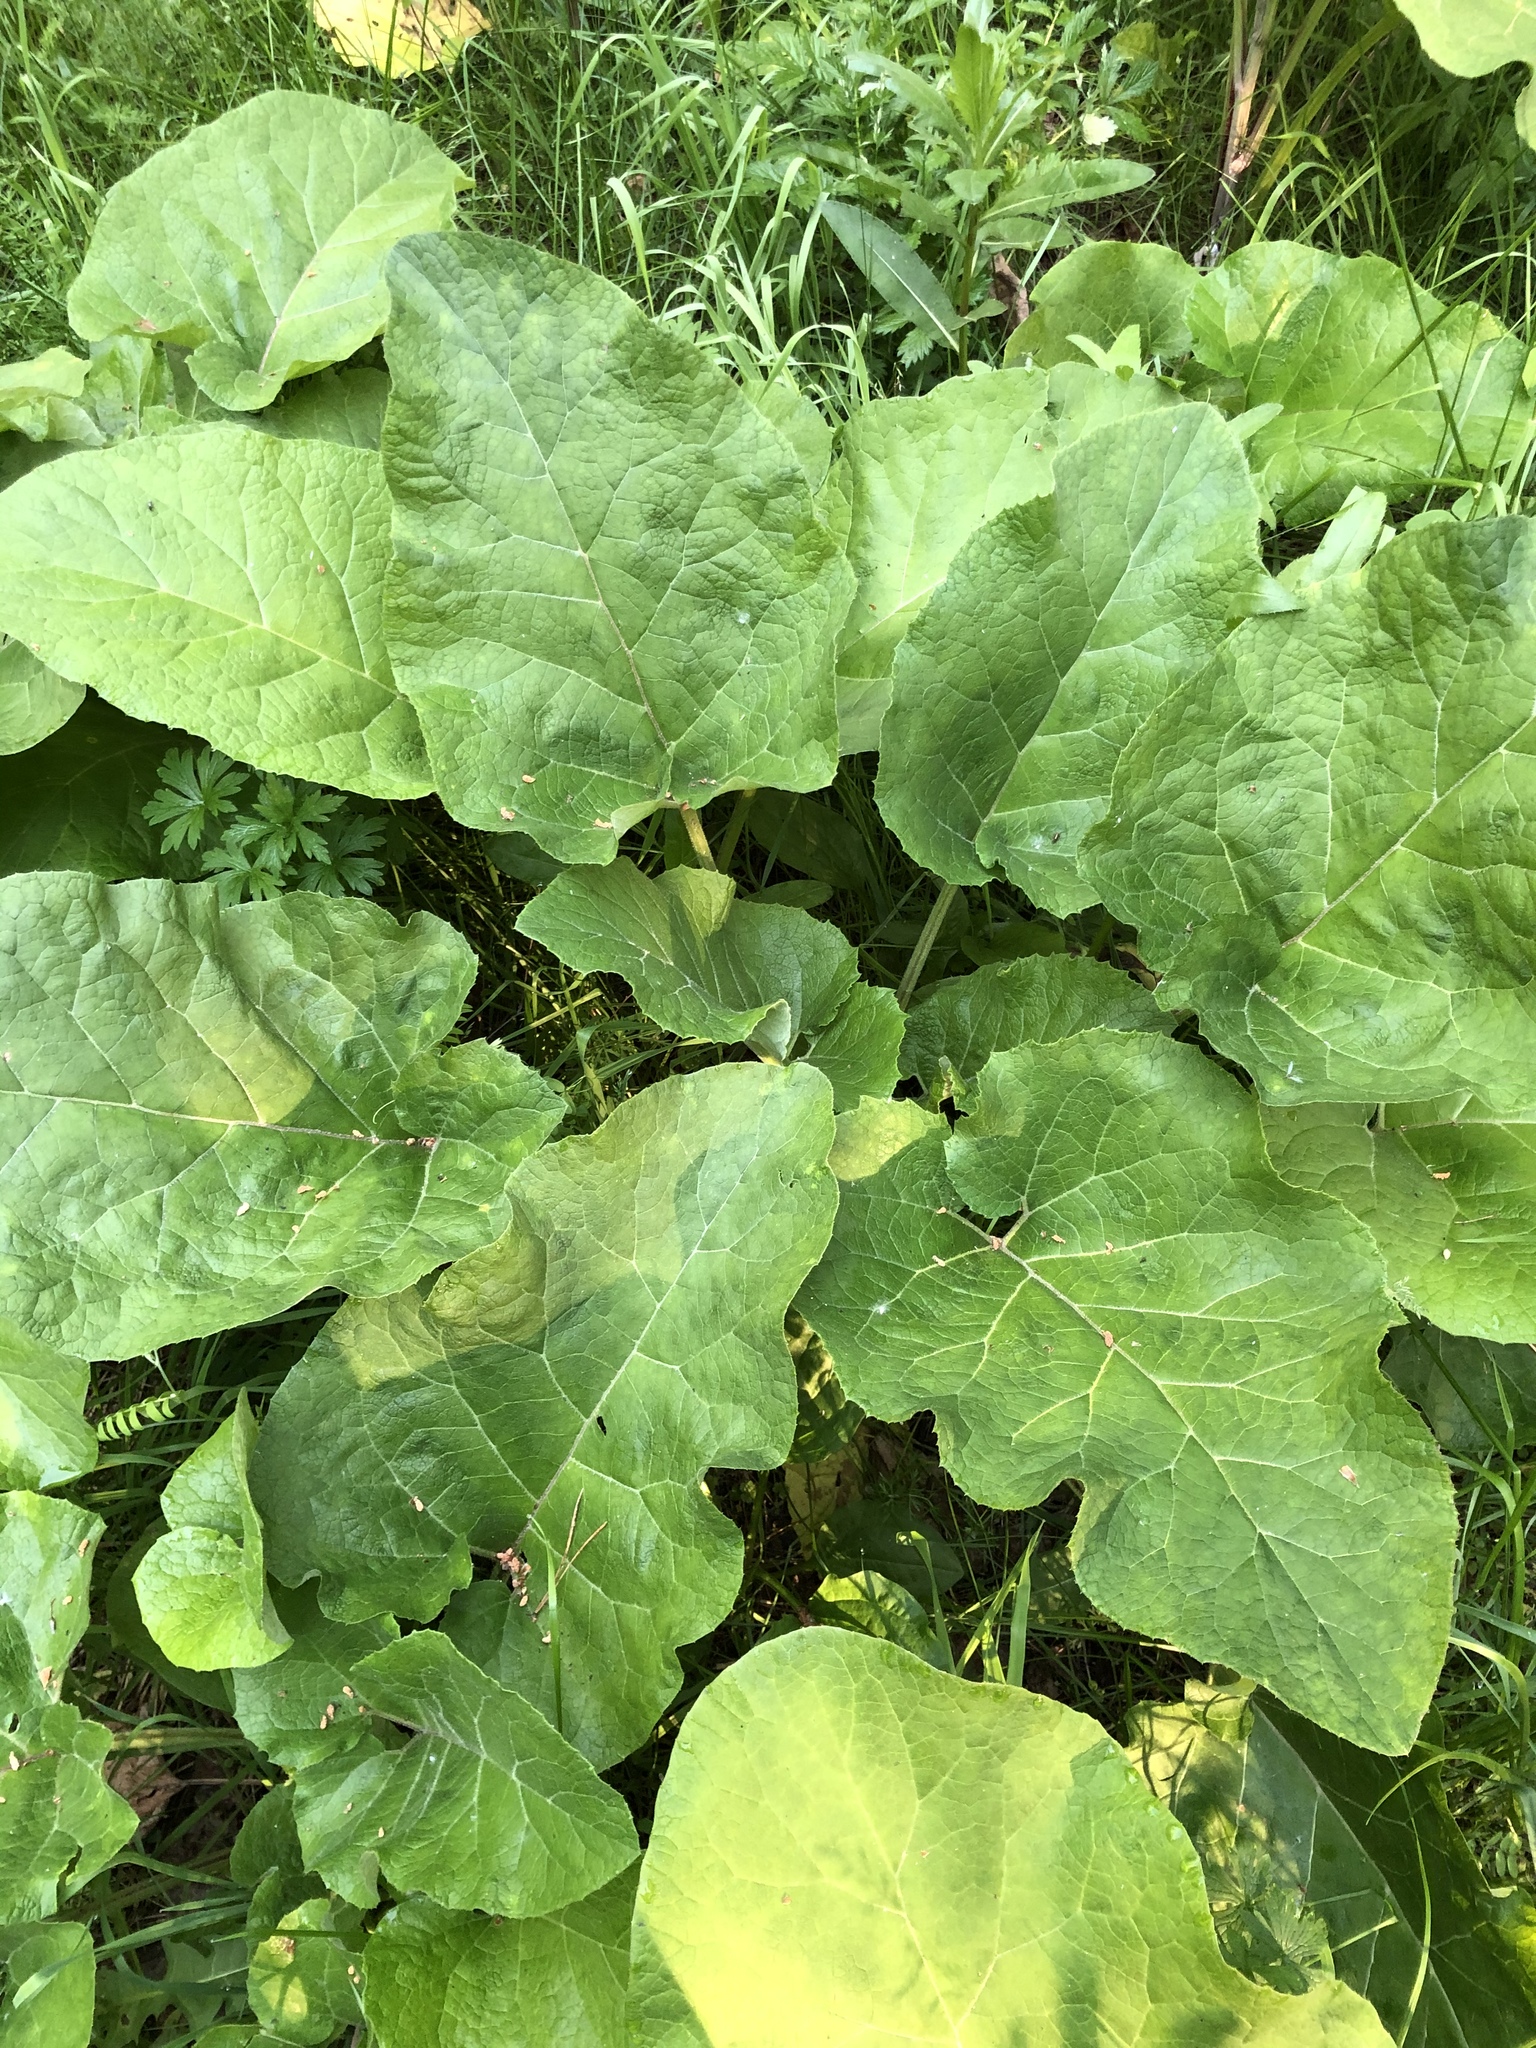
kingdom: Plantae
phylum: Tracheophyta
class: Magnoliopsida
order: Asterales
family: Asteraceae
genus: Arctium
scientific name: Arctium tomentosum
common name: Woolly burdock
